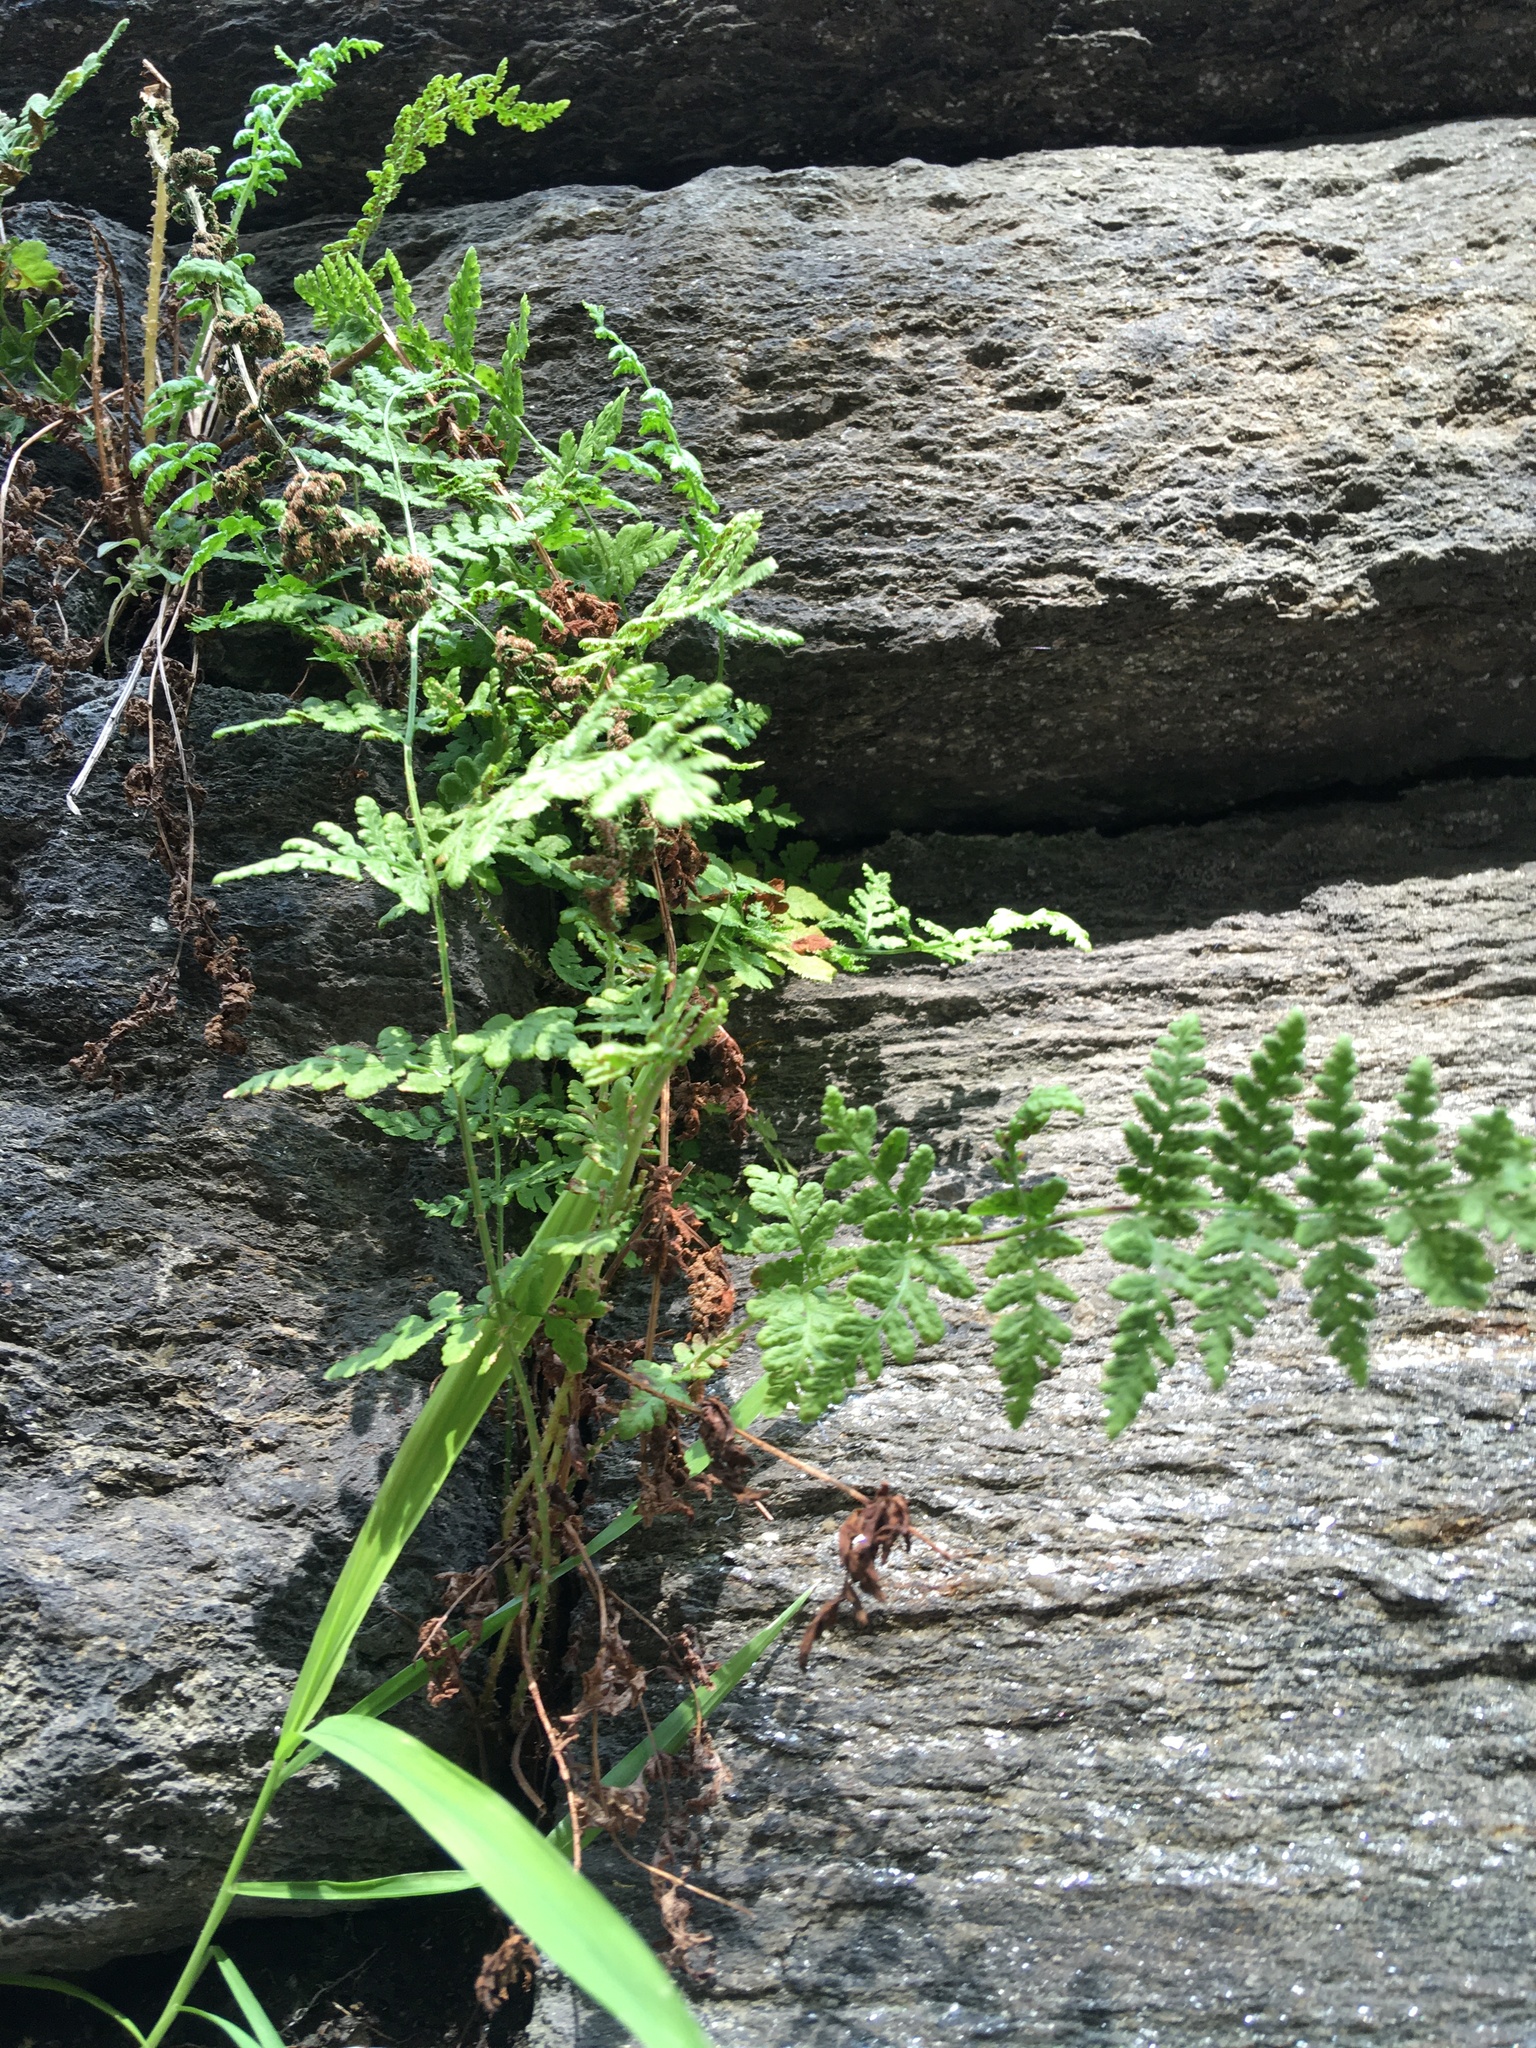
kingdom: Plantae
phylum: Tracheophyta
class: Polypodiopsida
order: Polypodiales
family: Woodsiaceae
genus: Physematium
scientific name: Physematium obtusum
